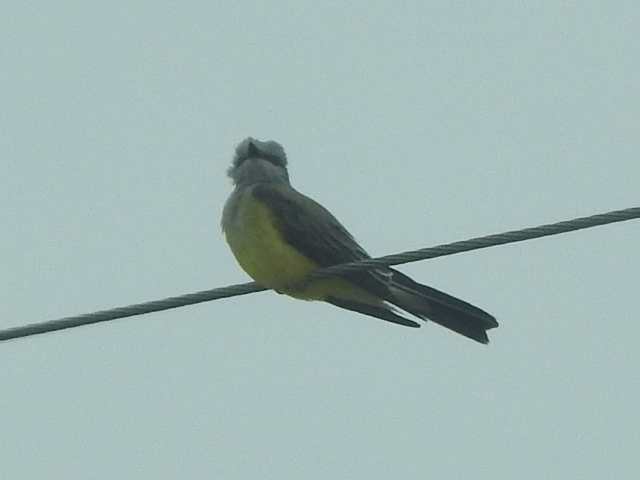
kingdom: Animalia
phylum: Chordata
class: Aves
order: Passeriformes
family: Tyrannidae
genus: Tyrannus
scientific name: Tyrannus verticalis
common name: Western kingbird
